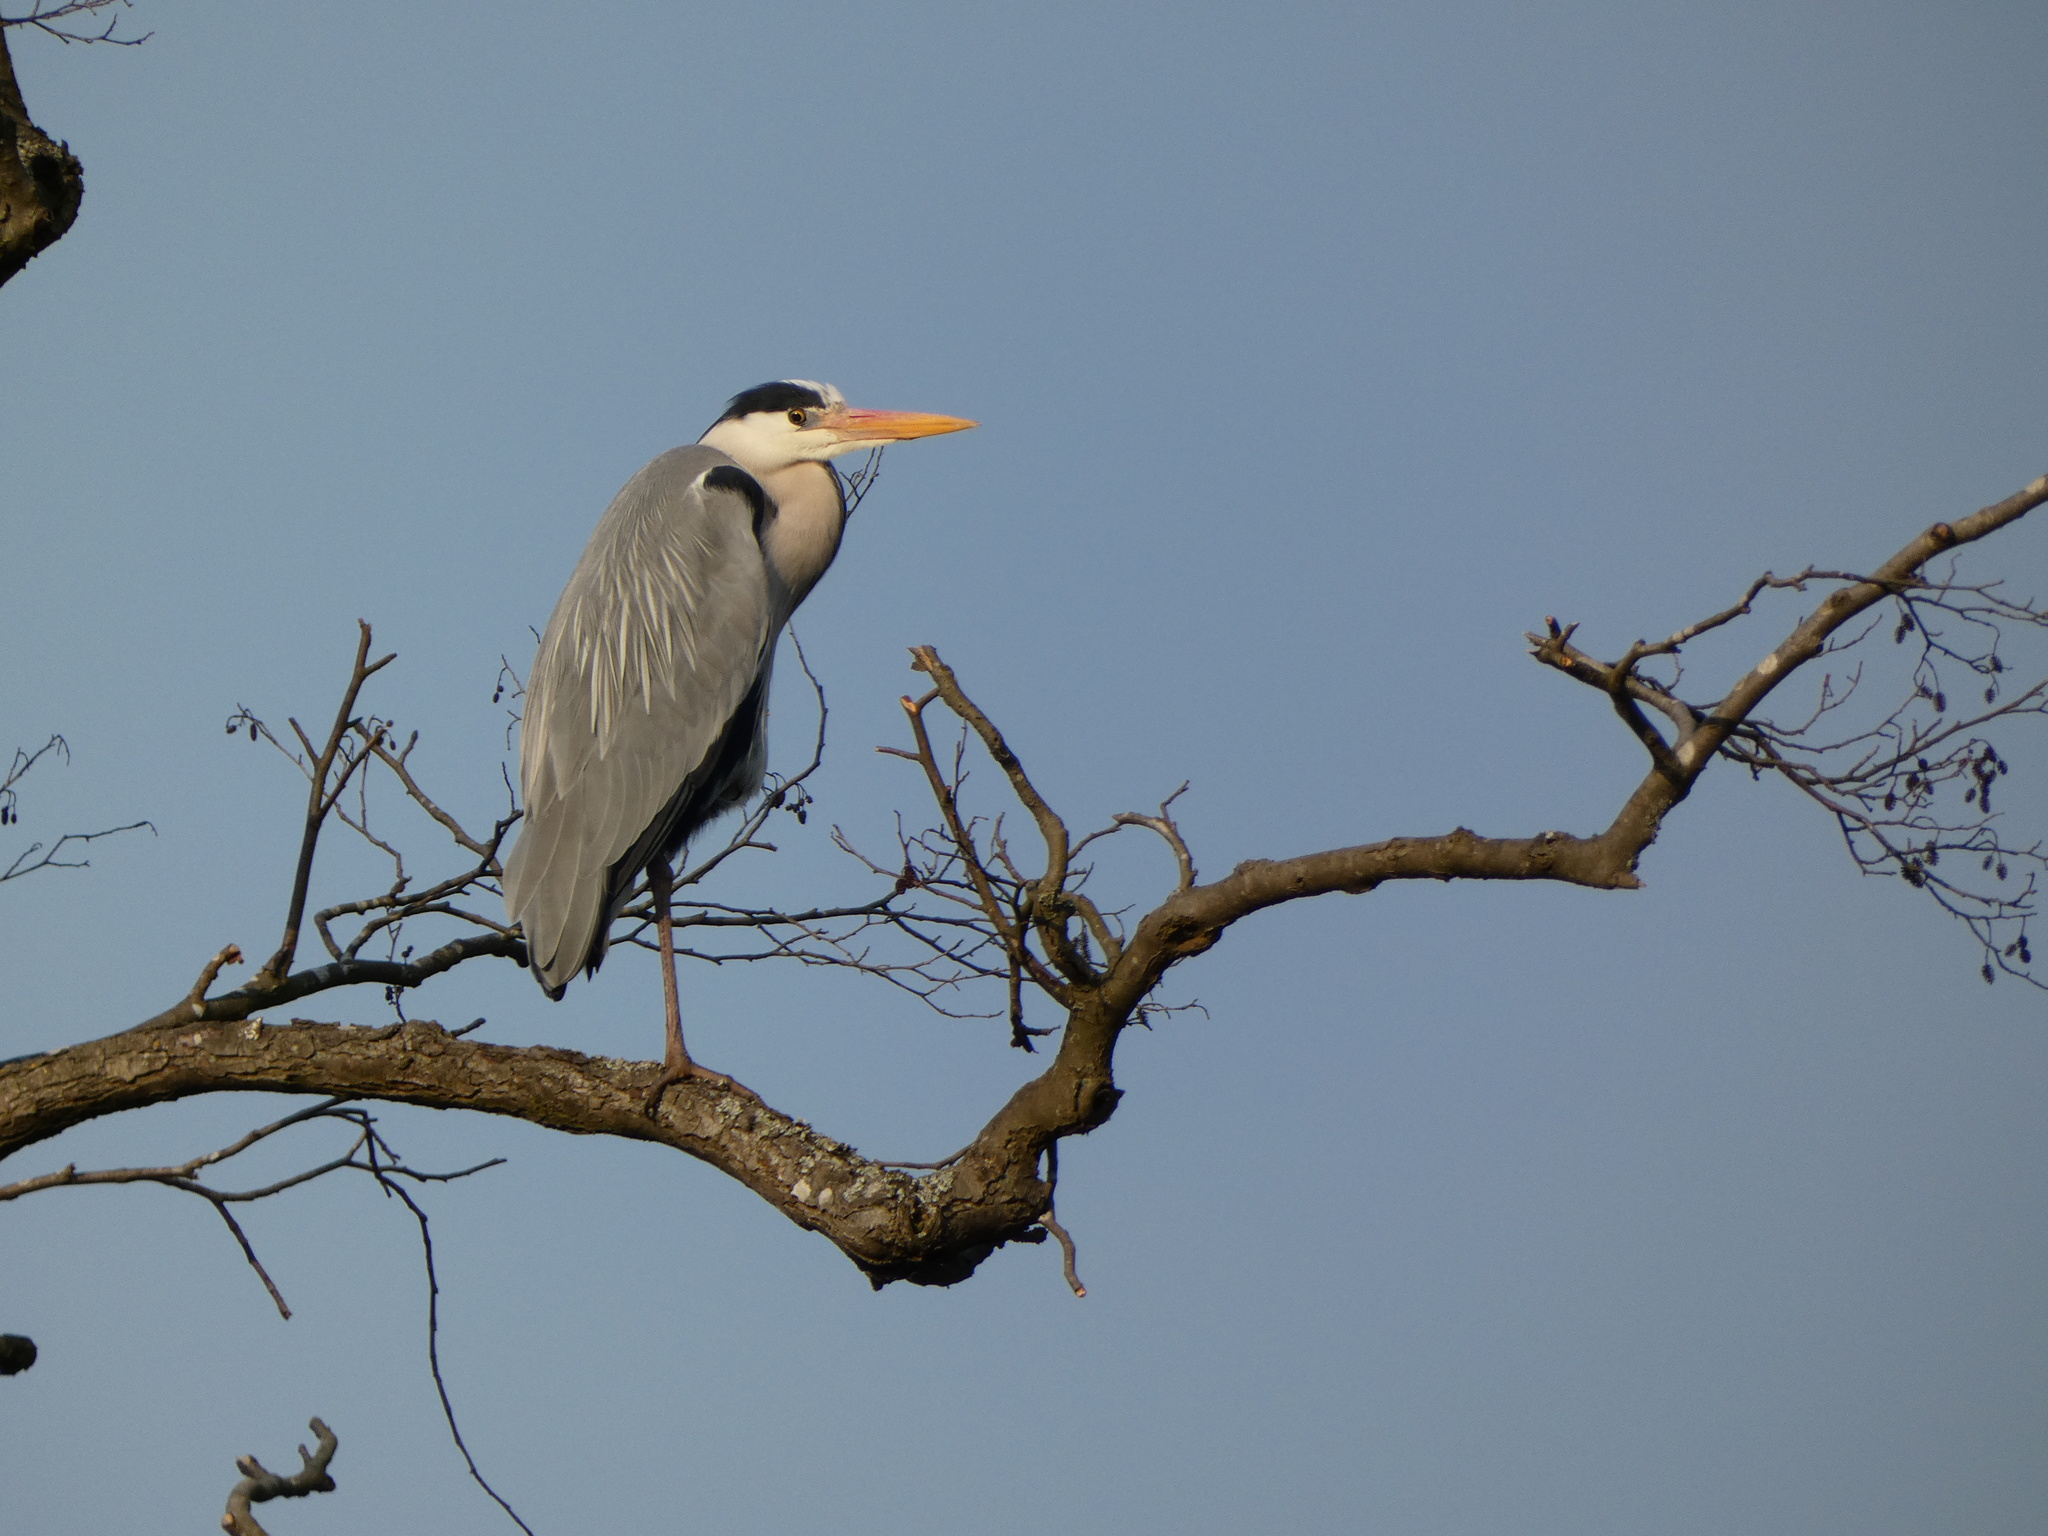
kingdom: Animalia
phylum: Chordata
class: Aves
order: Pelecaniformes
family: Ardeidae
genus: Ardea
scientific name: Ardea cinerea
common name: Grey heron
